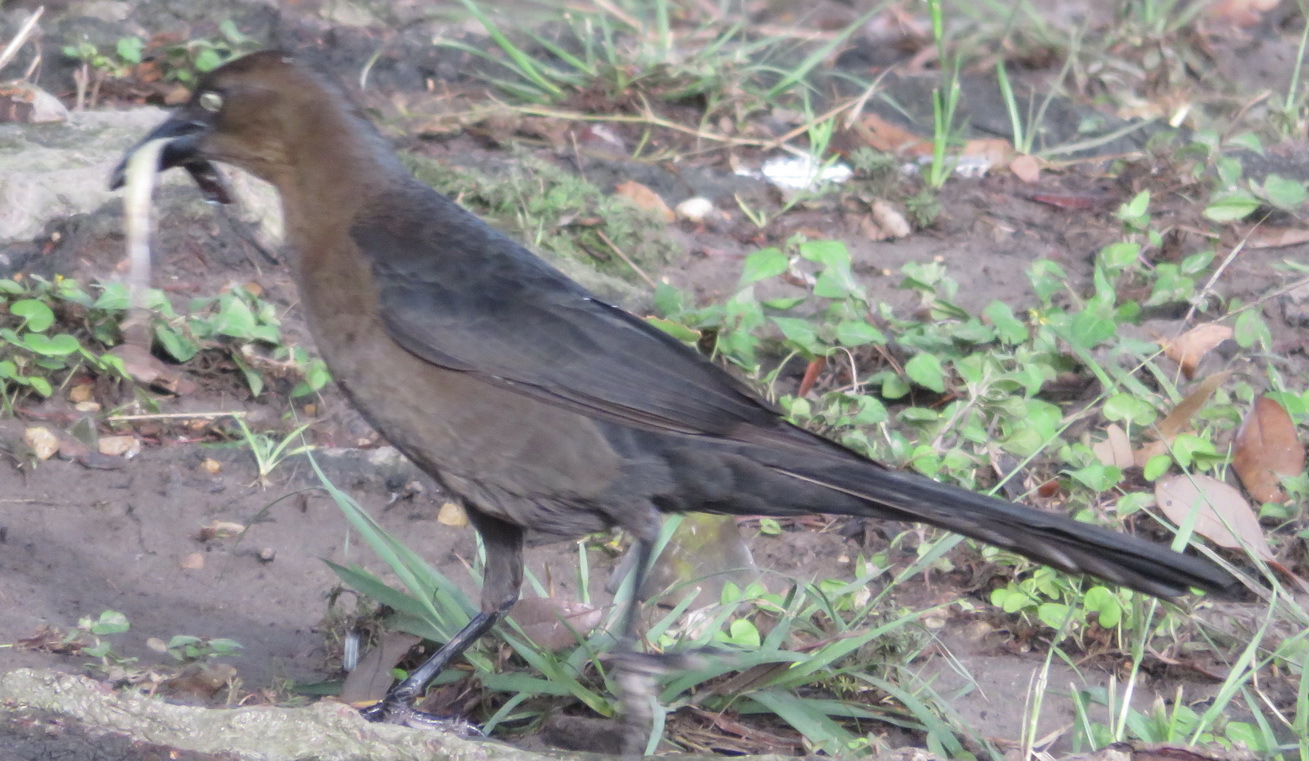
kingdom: Animalia
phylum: Chordata
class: Aves
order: Passeriformes
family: Icteridae
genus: Quiscalus
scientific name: Quiscalus mexicanus
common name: Great-tailed grackle
